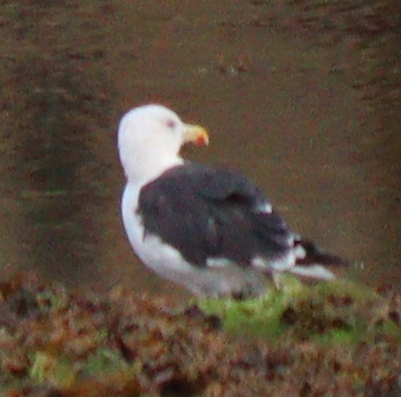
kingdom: Animalia
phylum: Chordata
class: Aves
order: Charadriiformes
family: Laridae
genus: Larus
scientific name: Larus marinus
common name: Great black-backed gull
